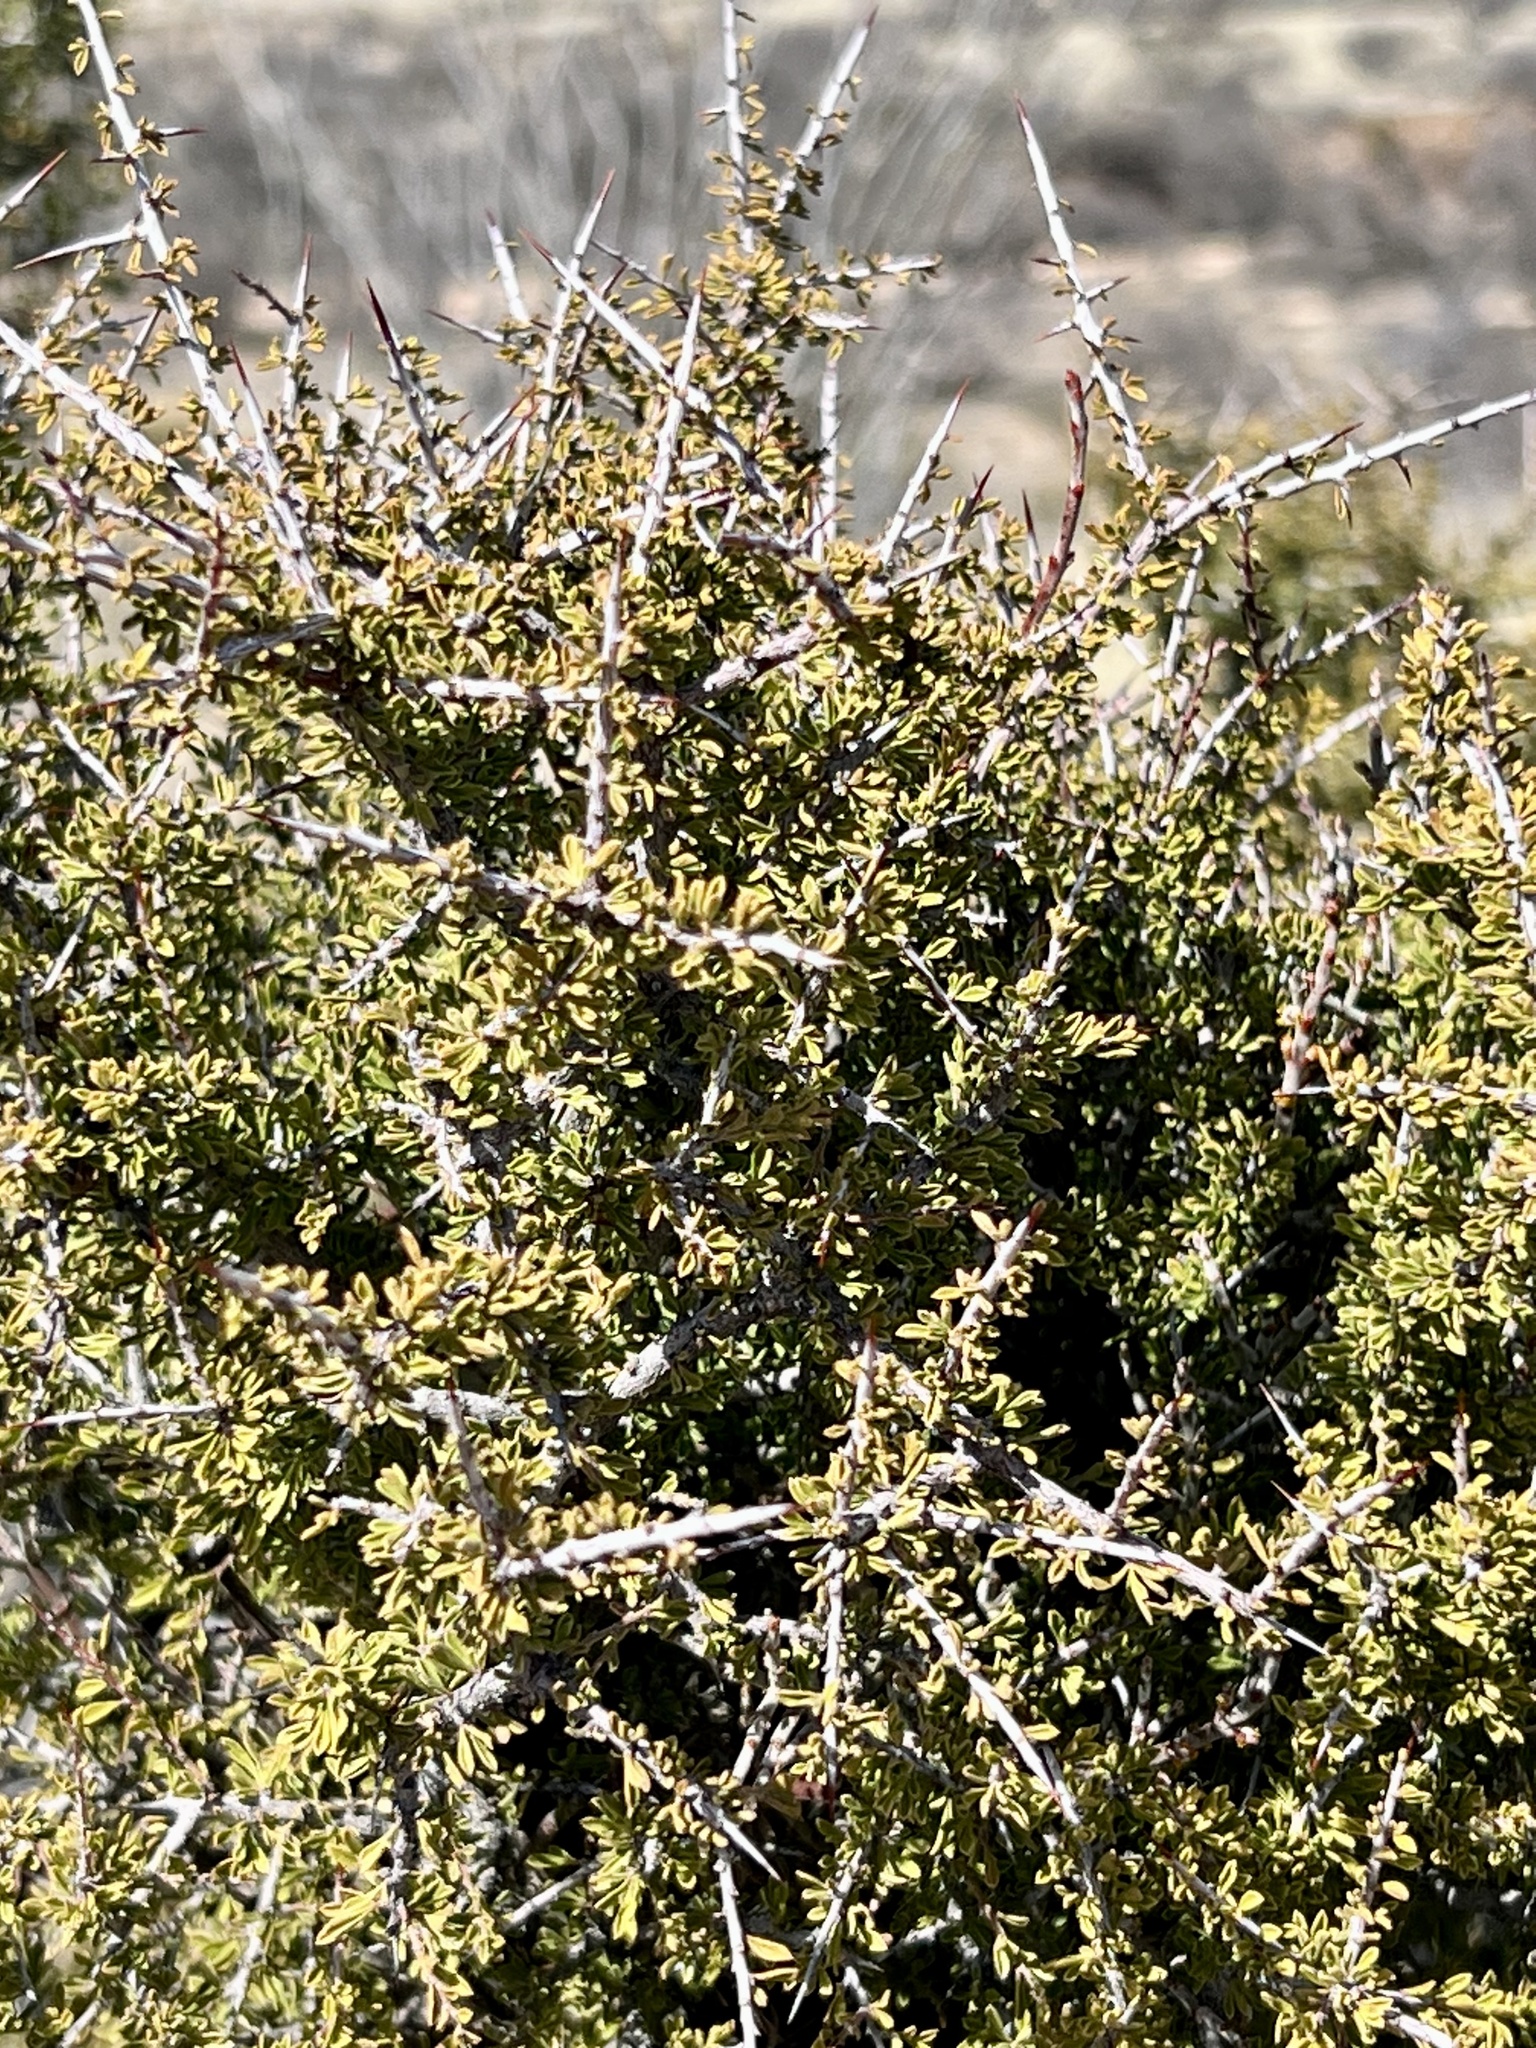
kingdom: Plantae
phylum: Tracheophyta
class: Magnoliopsida
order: Rosales
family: Rhamnaceae
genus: Condalia
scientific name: Condalia warnockii
